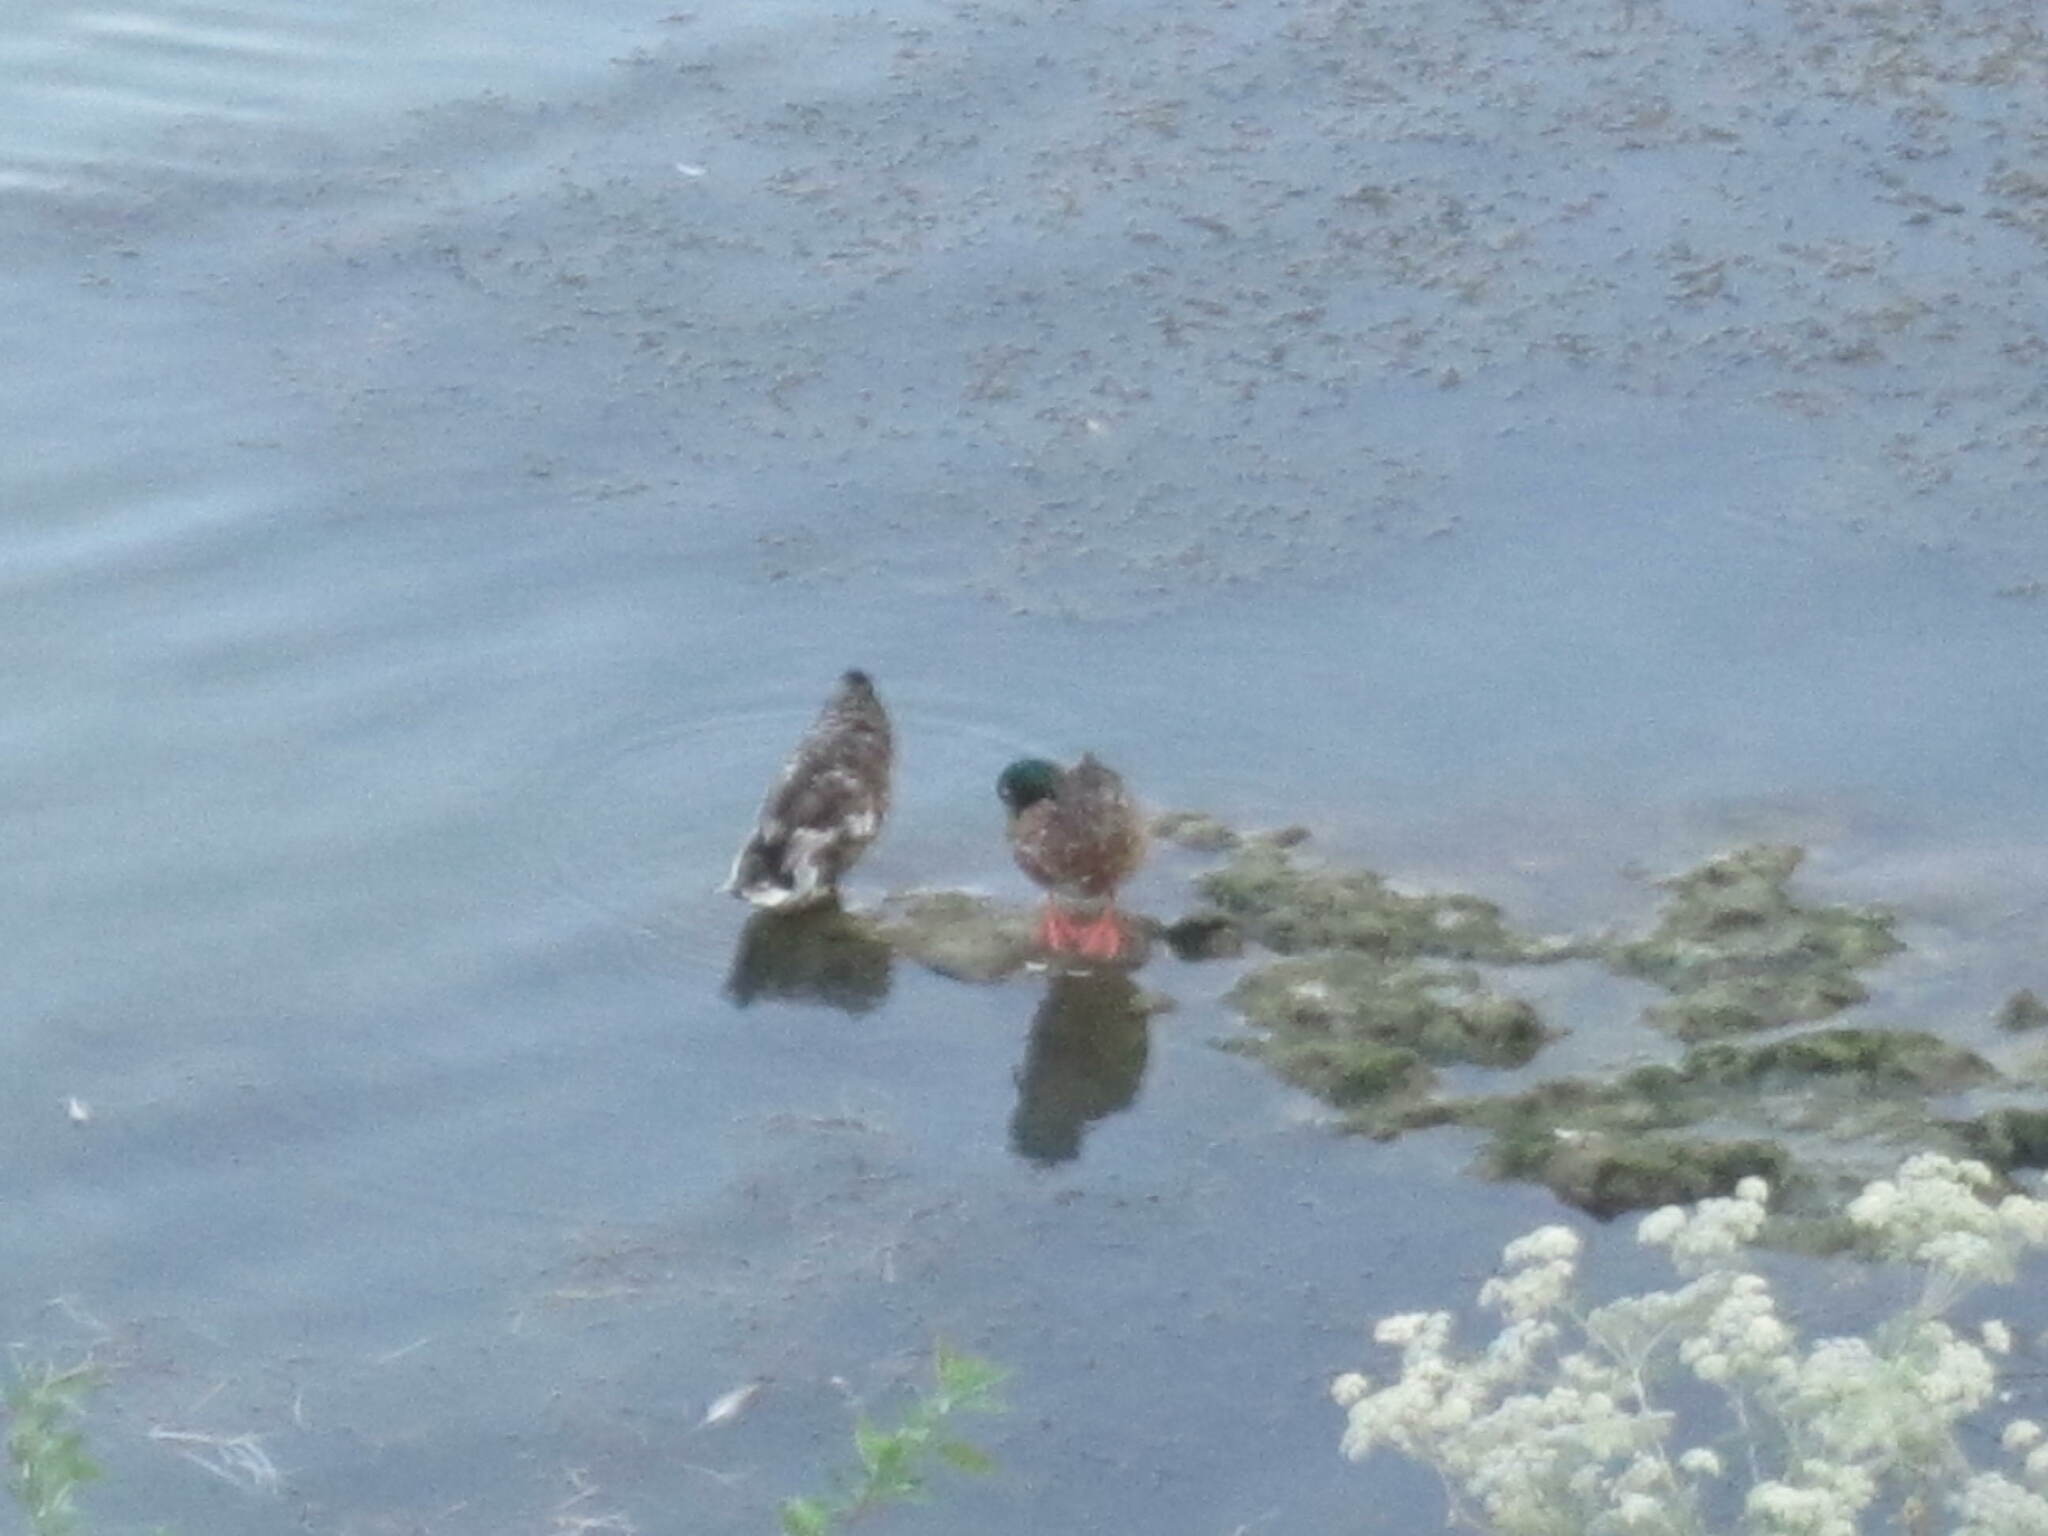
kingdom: Animalia
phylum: Chordata
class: Aves
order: Anseriformes
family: Anatidae
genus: Anas
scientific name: Anas platyrhynchos
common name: Mallard
